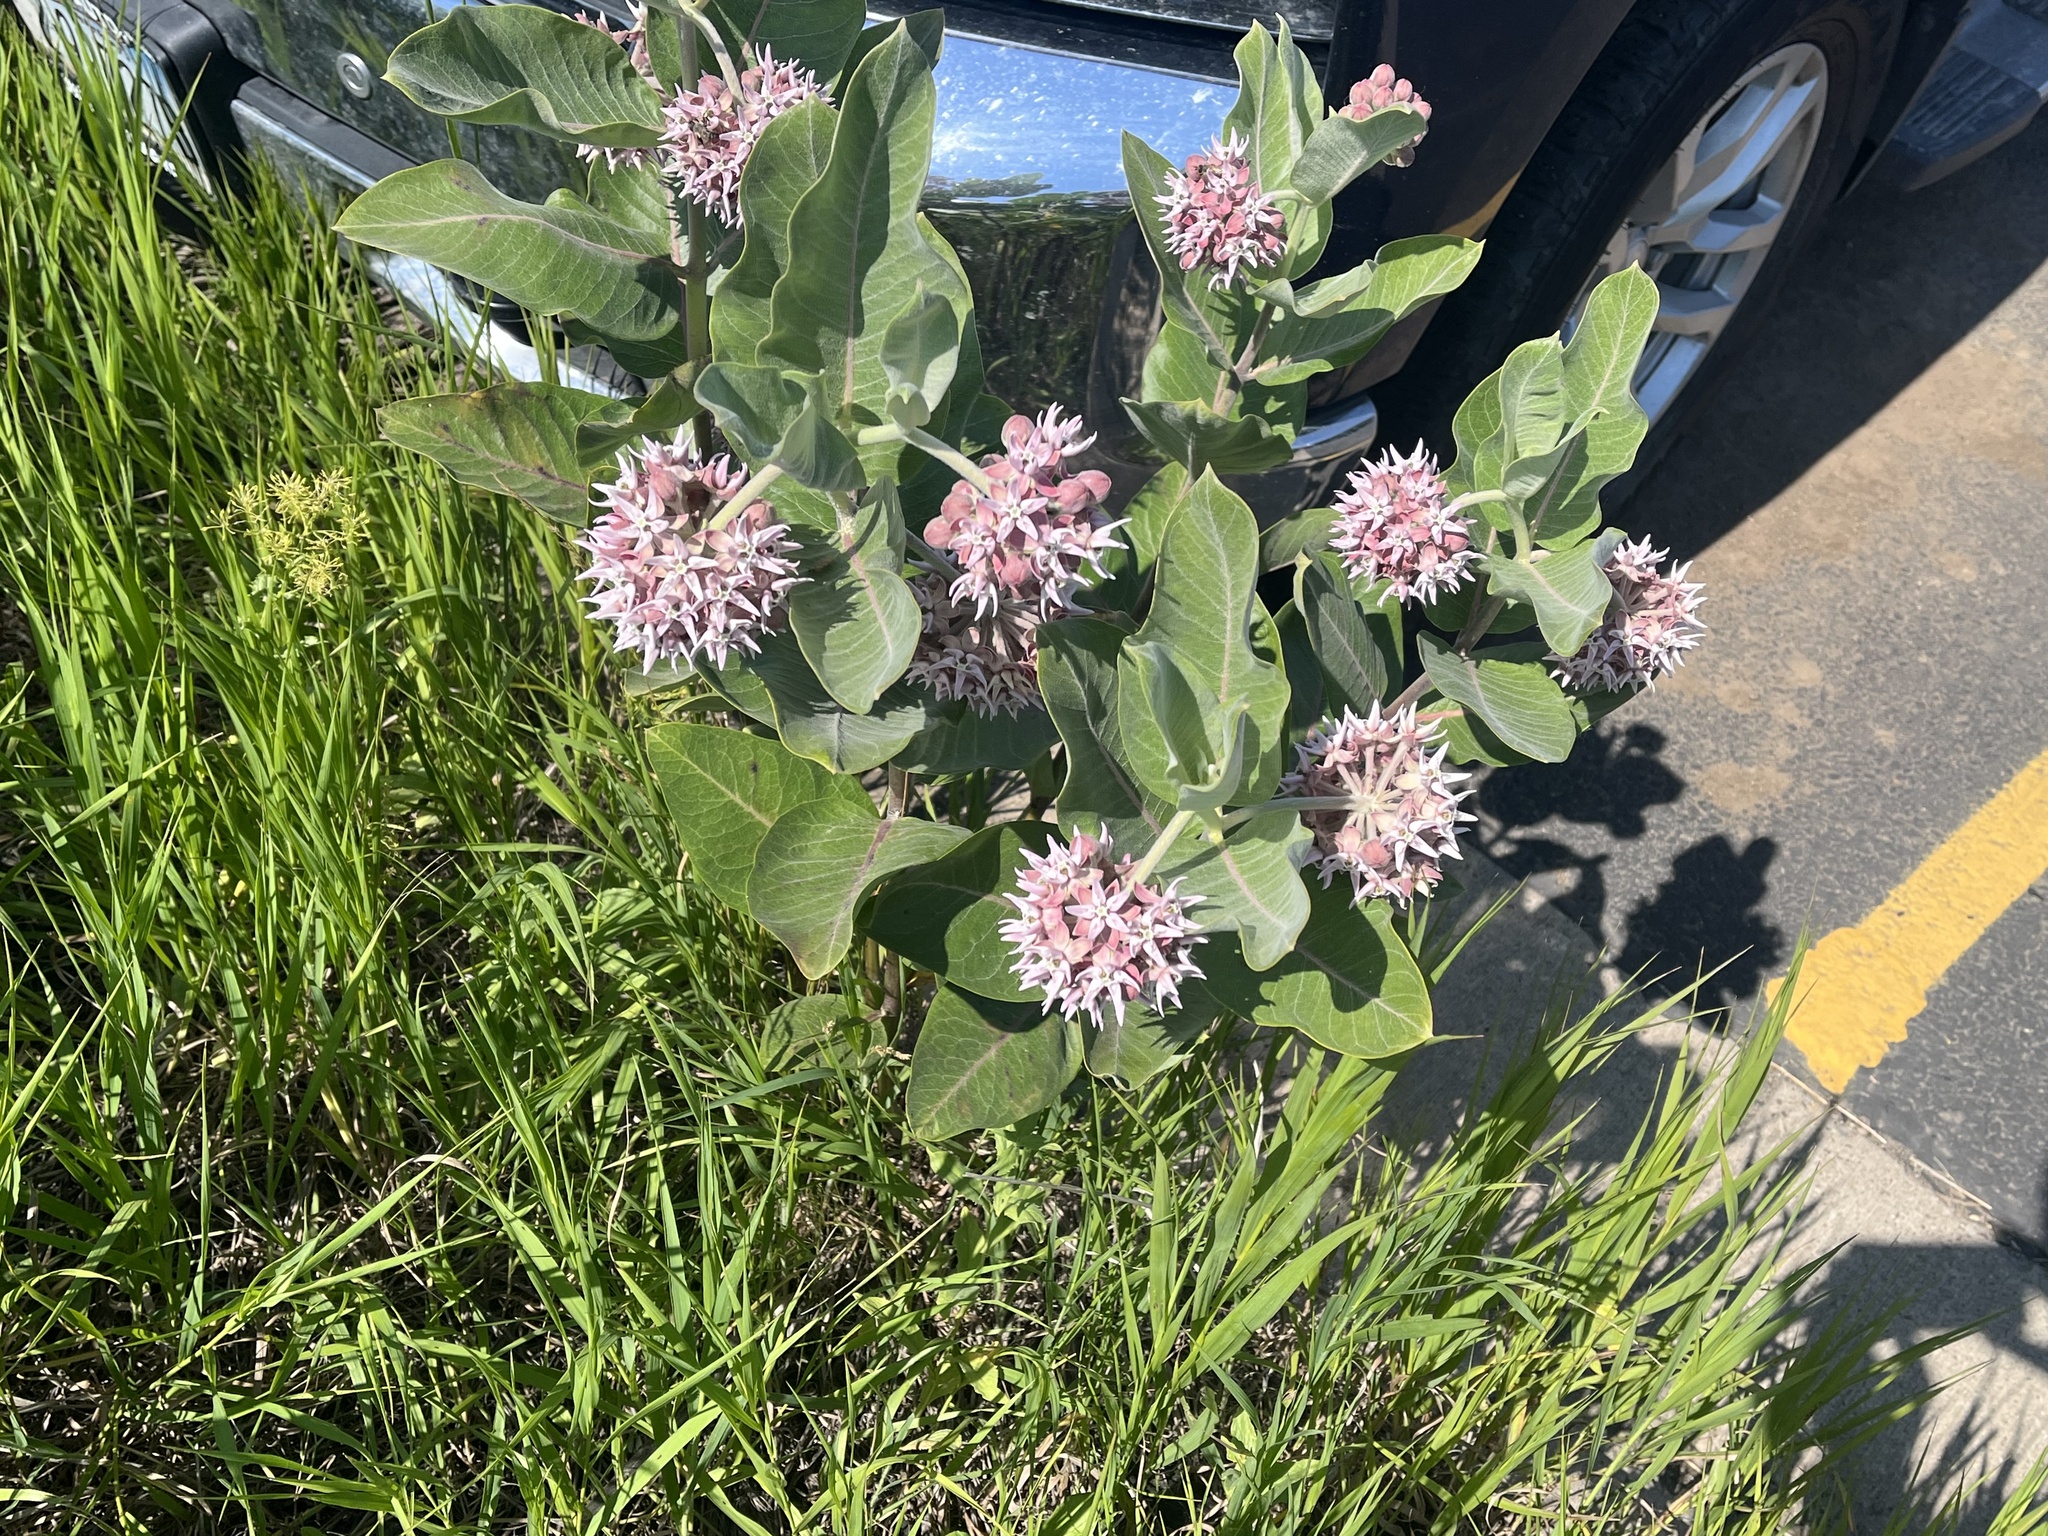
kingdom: Plantae
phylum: Tracheophyta
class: Magnoliopsida
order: Gentianales
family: Apocynaceae
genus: Asclepias
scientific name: Asclepias speciosa
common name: Showy milkweed
